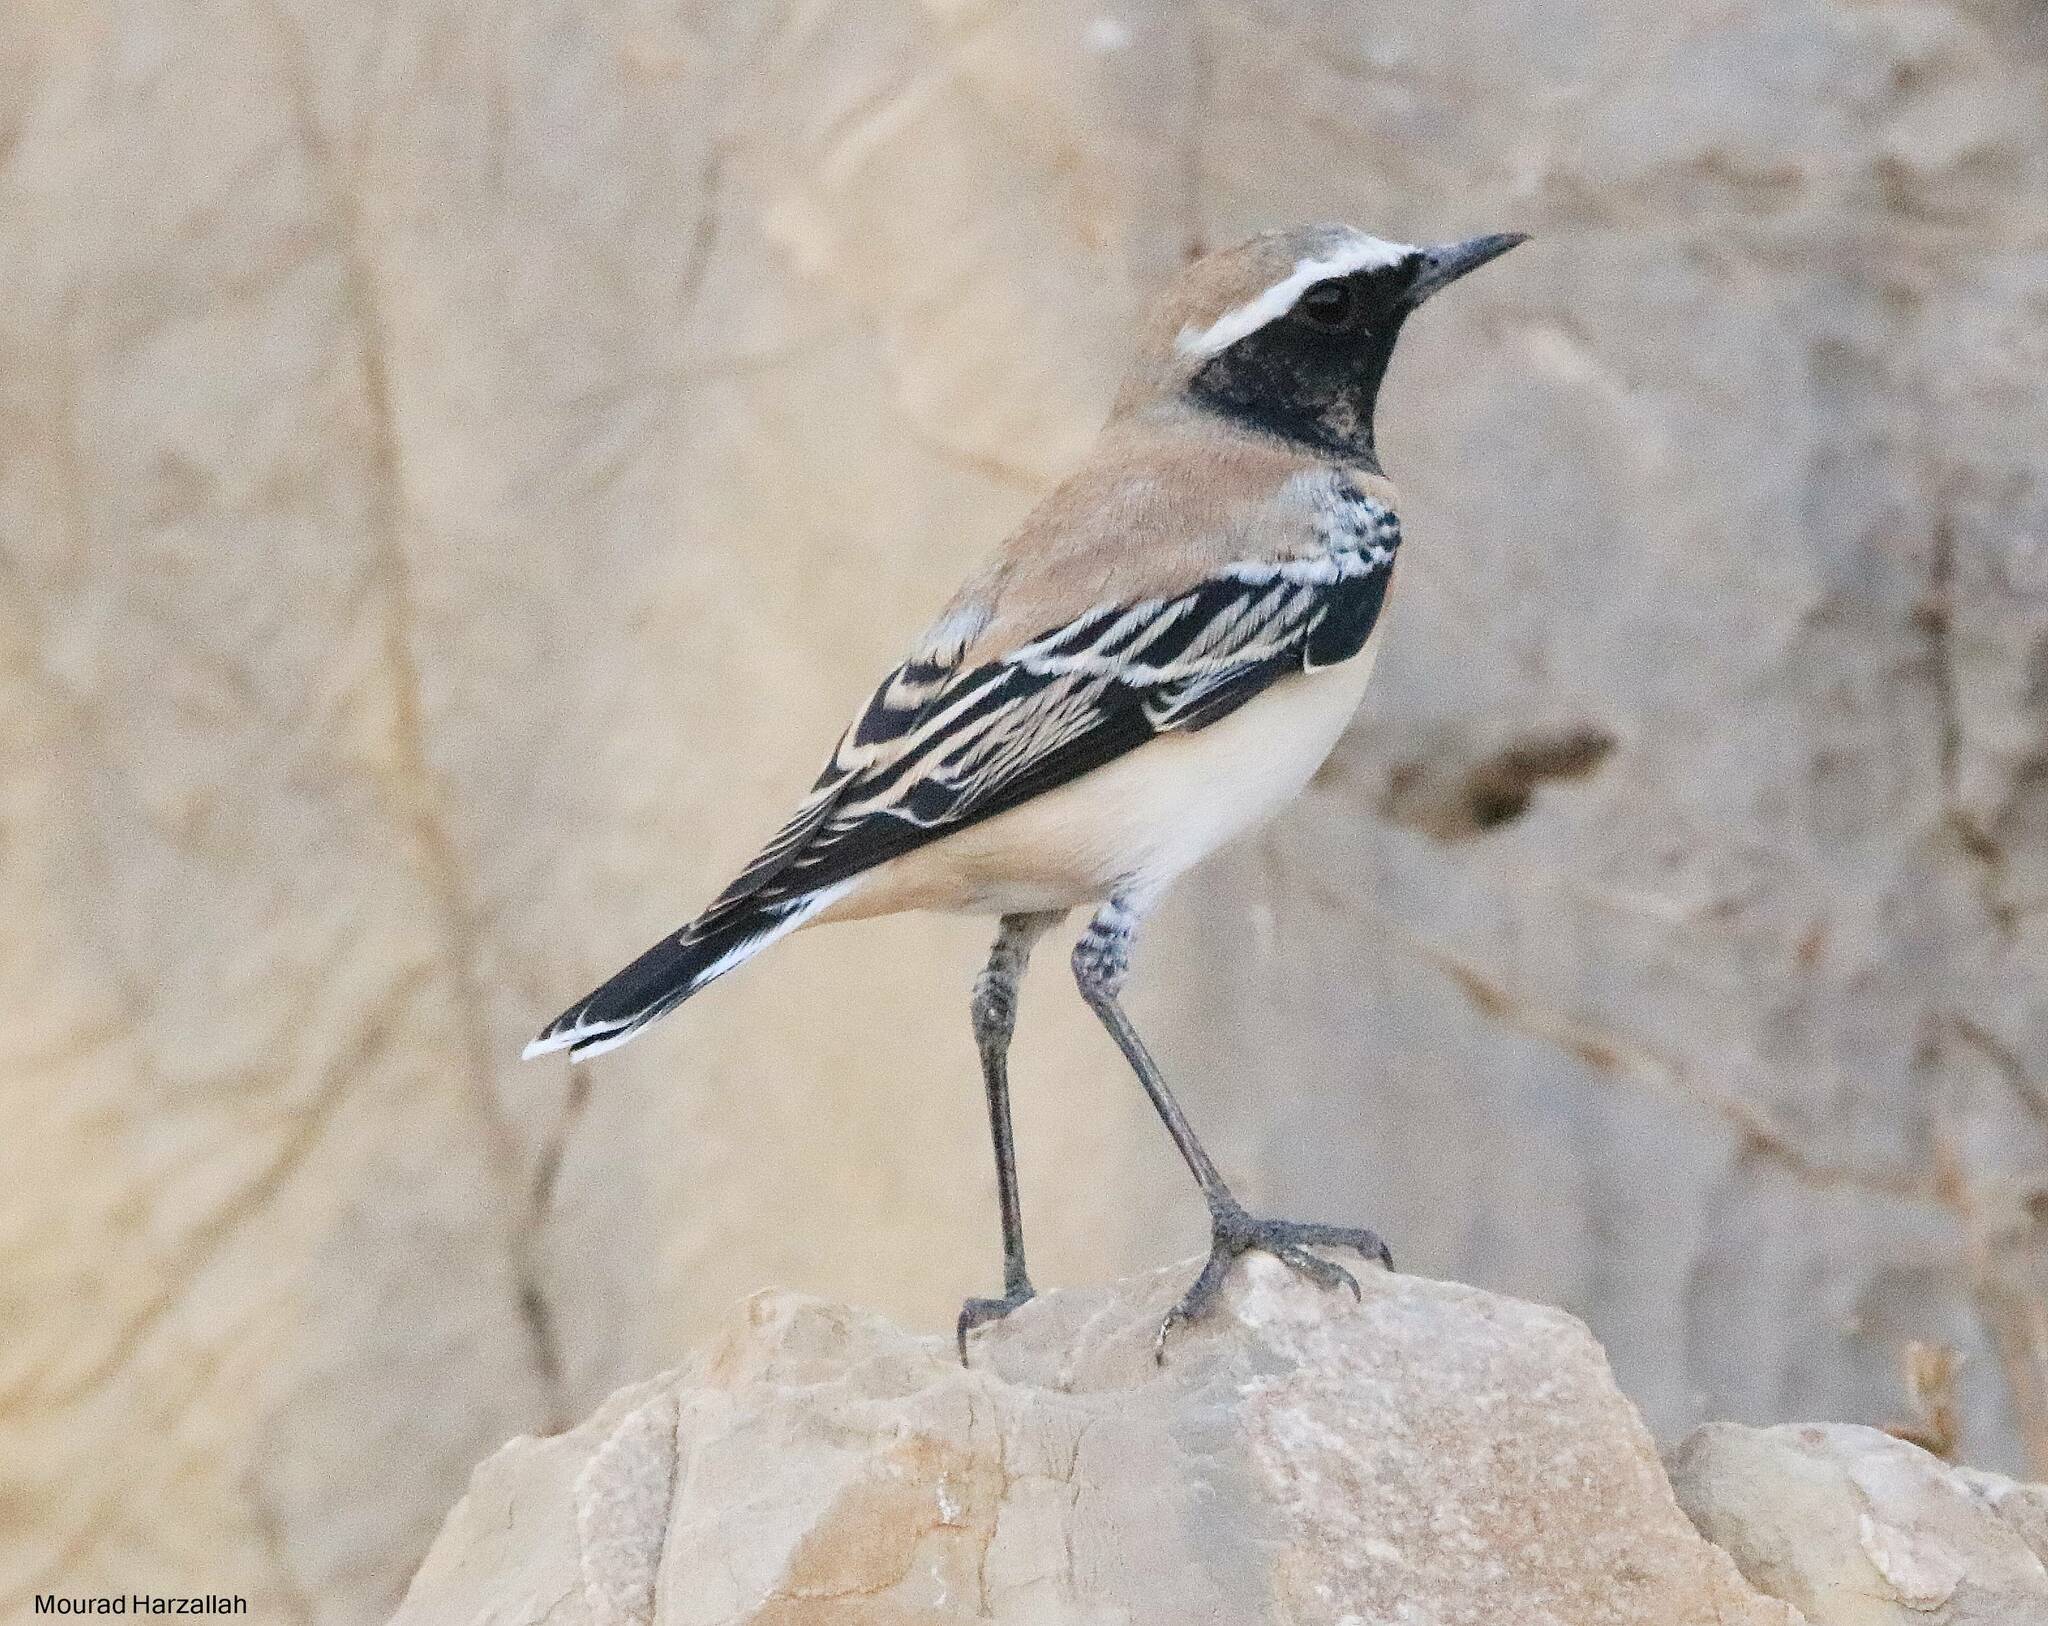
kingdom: Animalia
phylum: Chordata
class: Aves
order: Passeriformes
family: Muscicapidae
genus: Oenanthe
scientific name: Oenanthe oenanthe
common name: Northern wheatear
